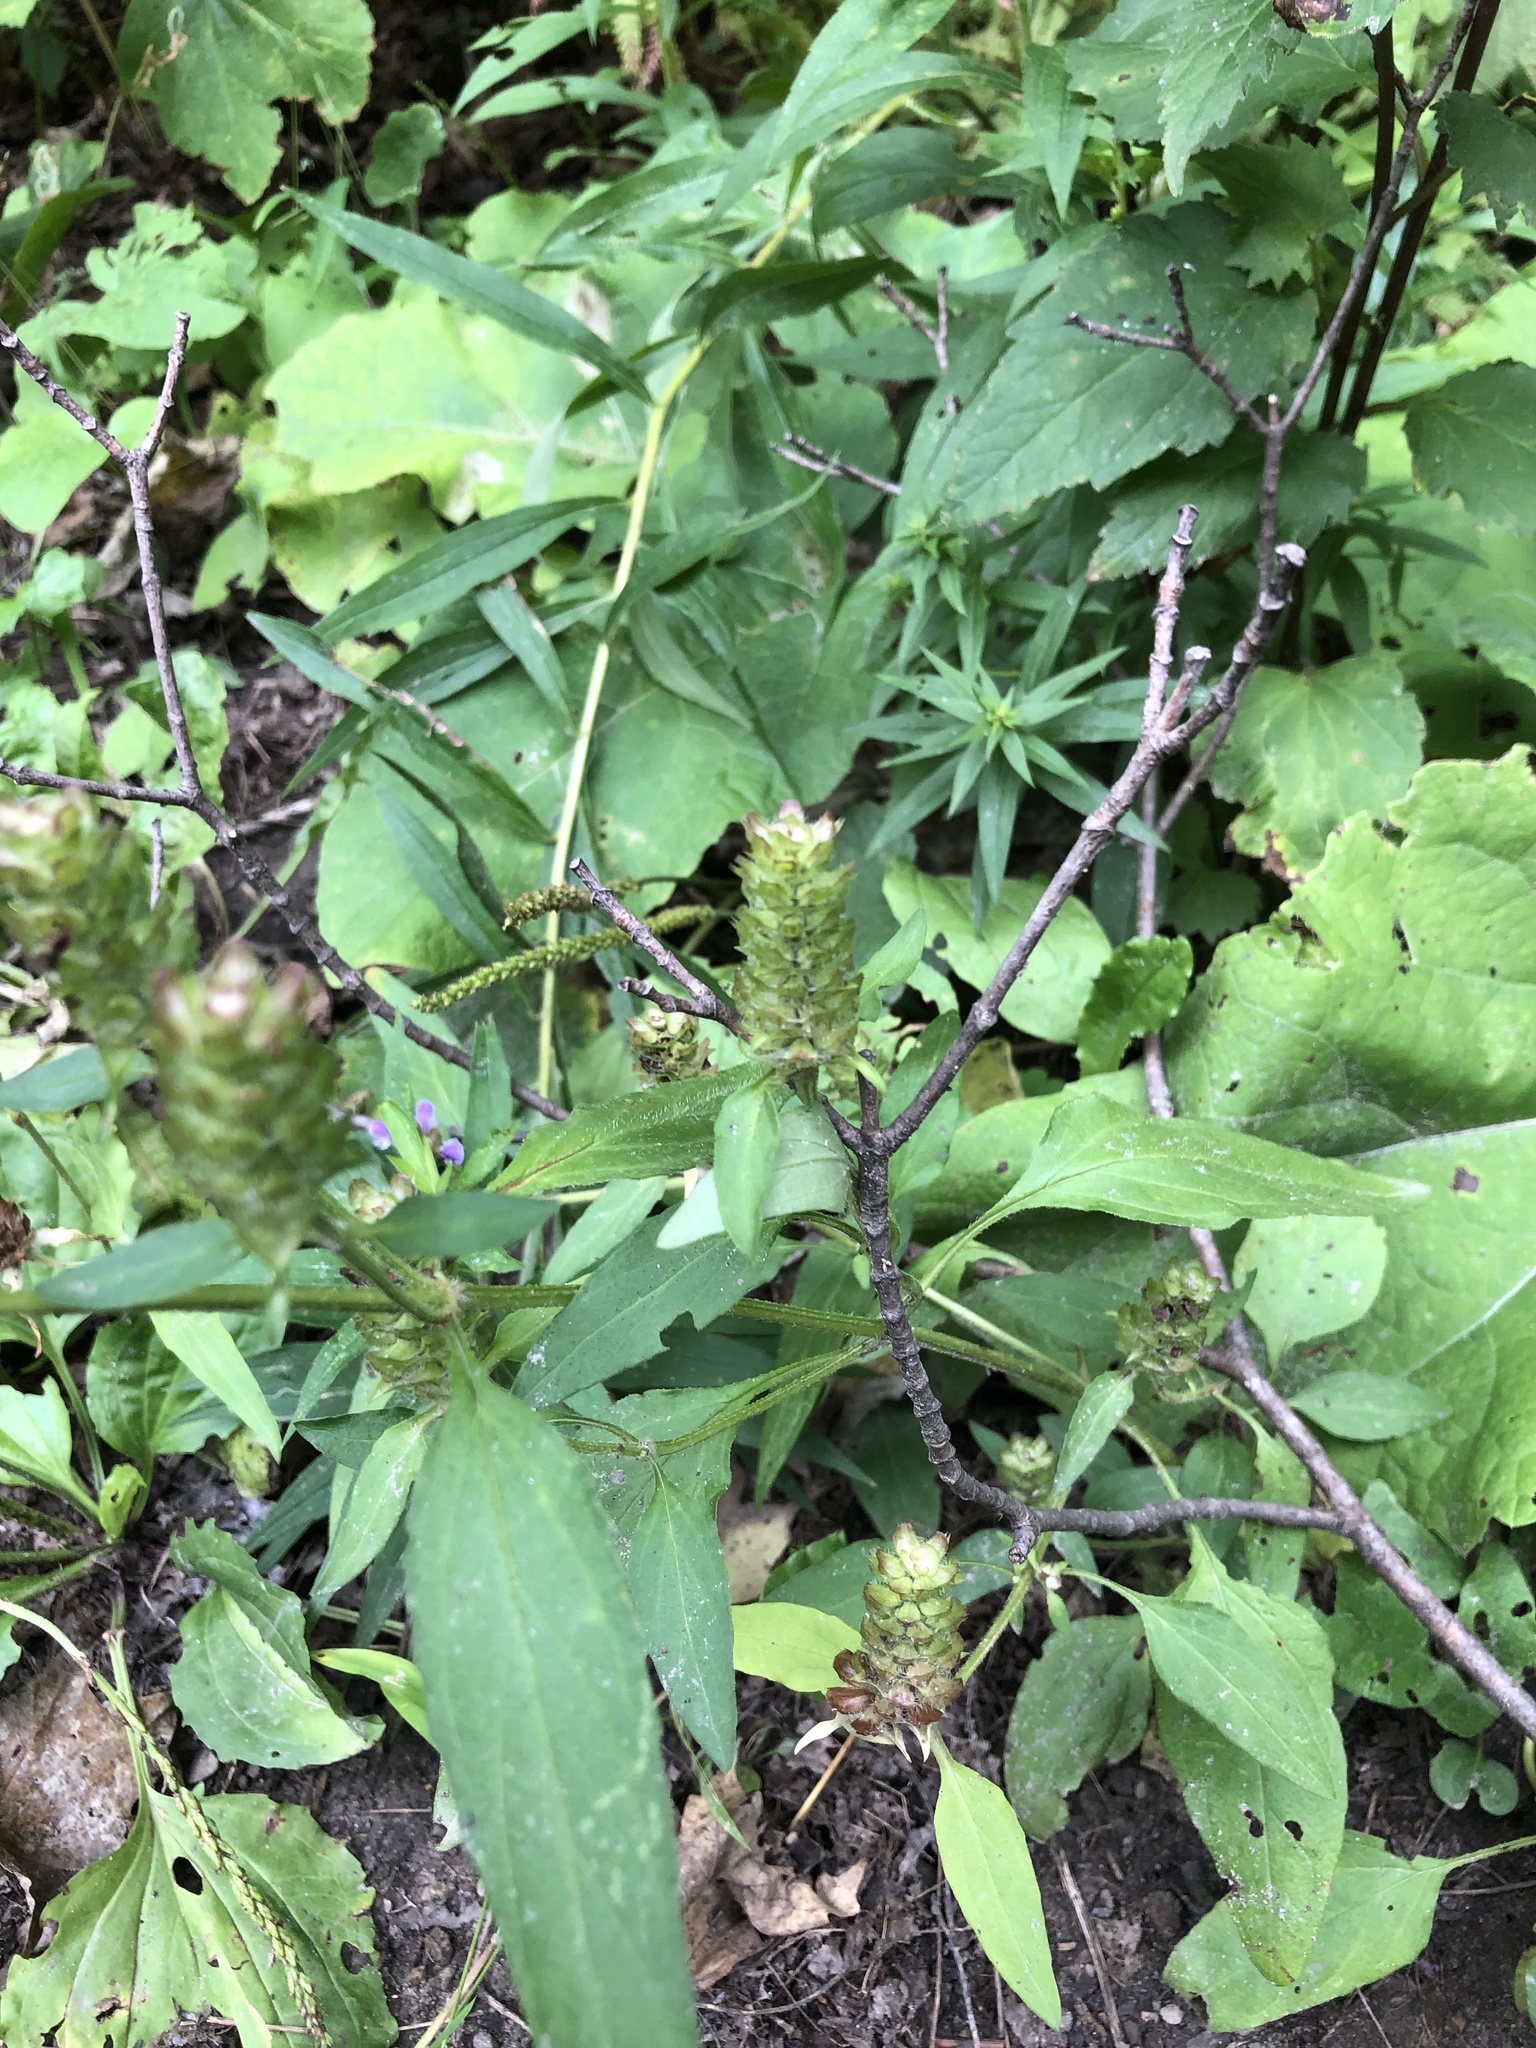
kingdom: Plantae
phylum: Tracheophyta
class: Magnoliopsida
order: Lamiales
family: Lamiaceae
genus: Prunella
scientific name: Prunella vulgaris
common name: Heal-all
